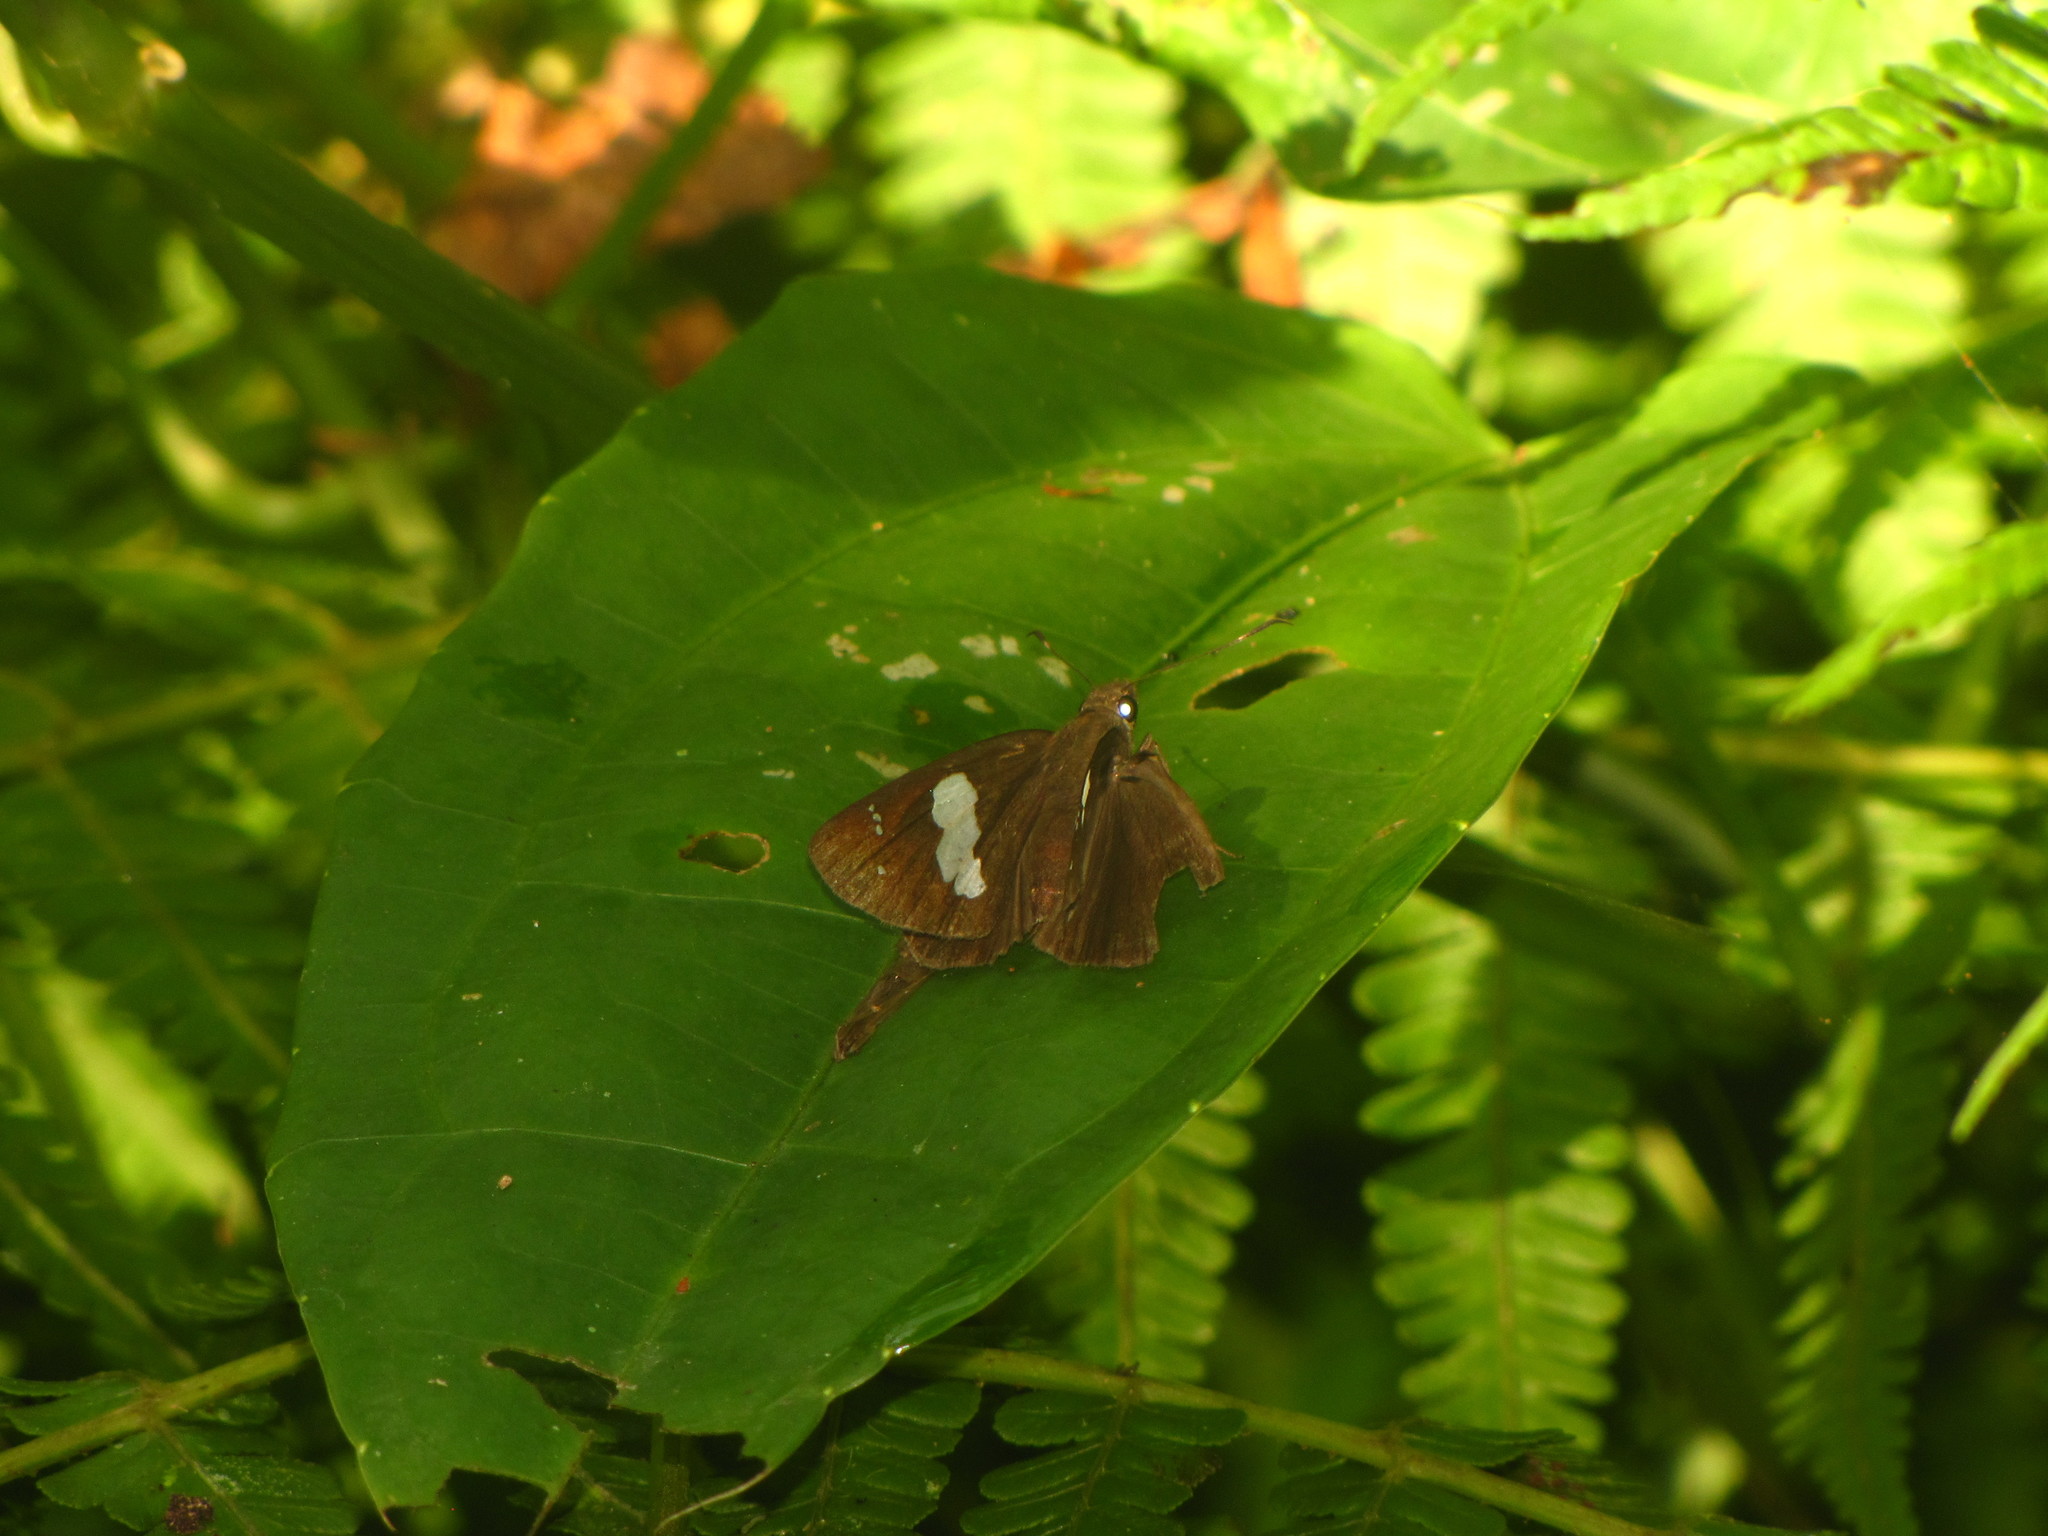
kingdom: Animalia
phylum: Arthropoda
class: Insecta
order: Lepidoptera
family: Hesperiidae
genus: Notocrypta
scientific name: Notocrypta paralysos
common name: Common banded demon
